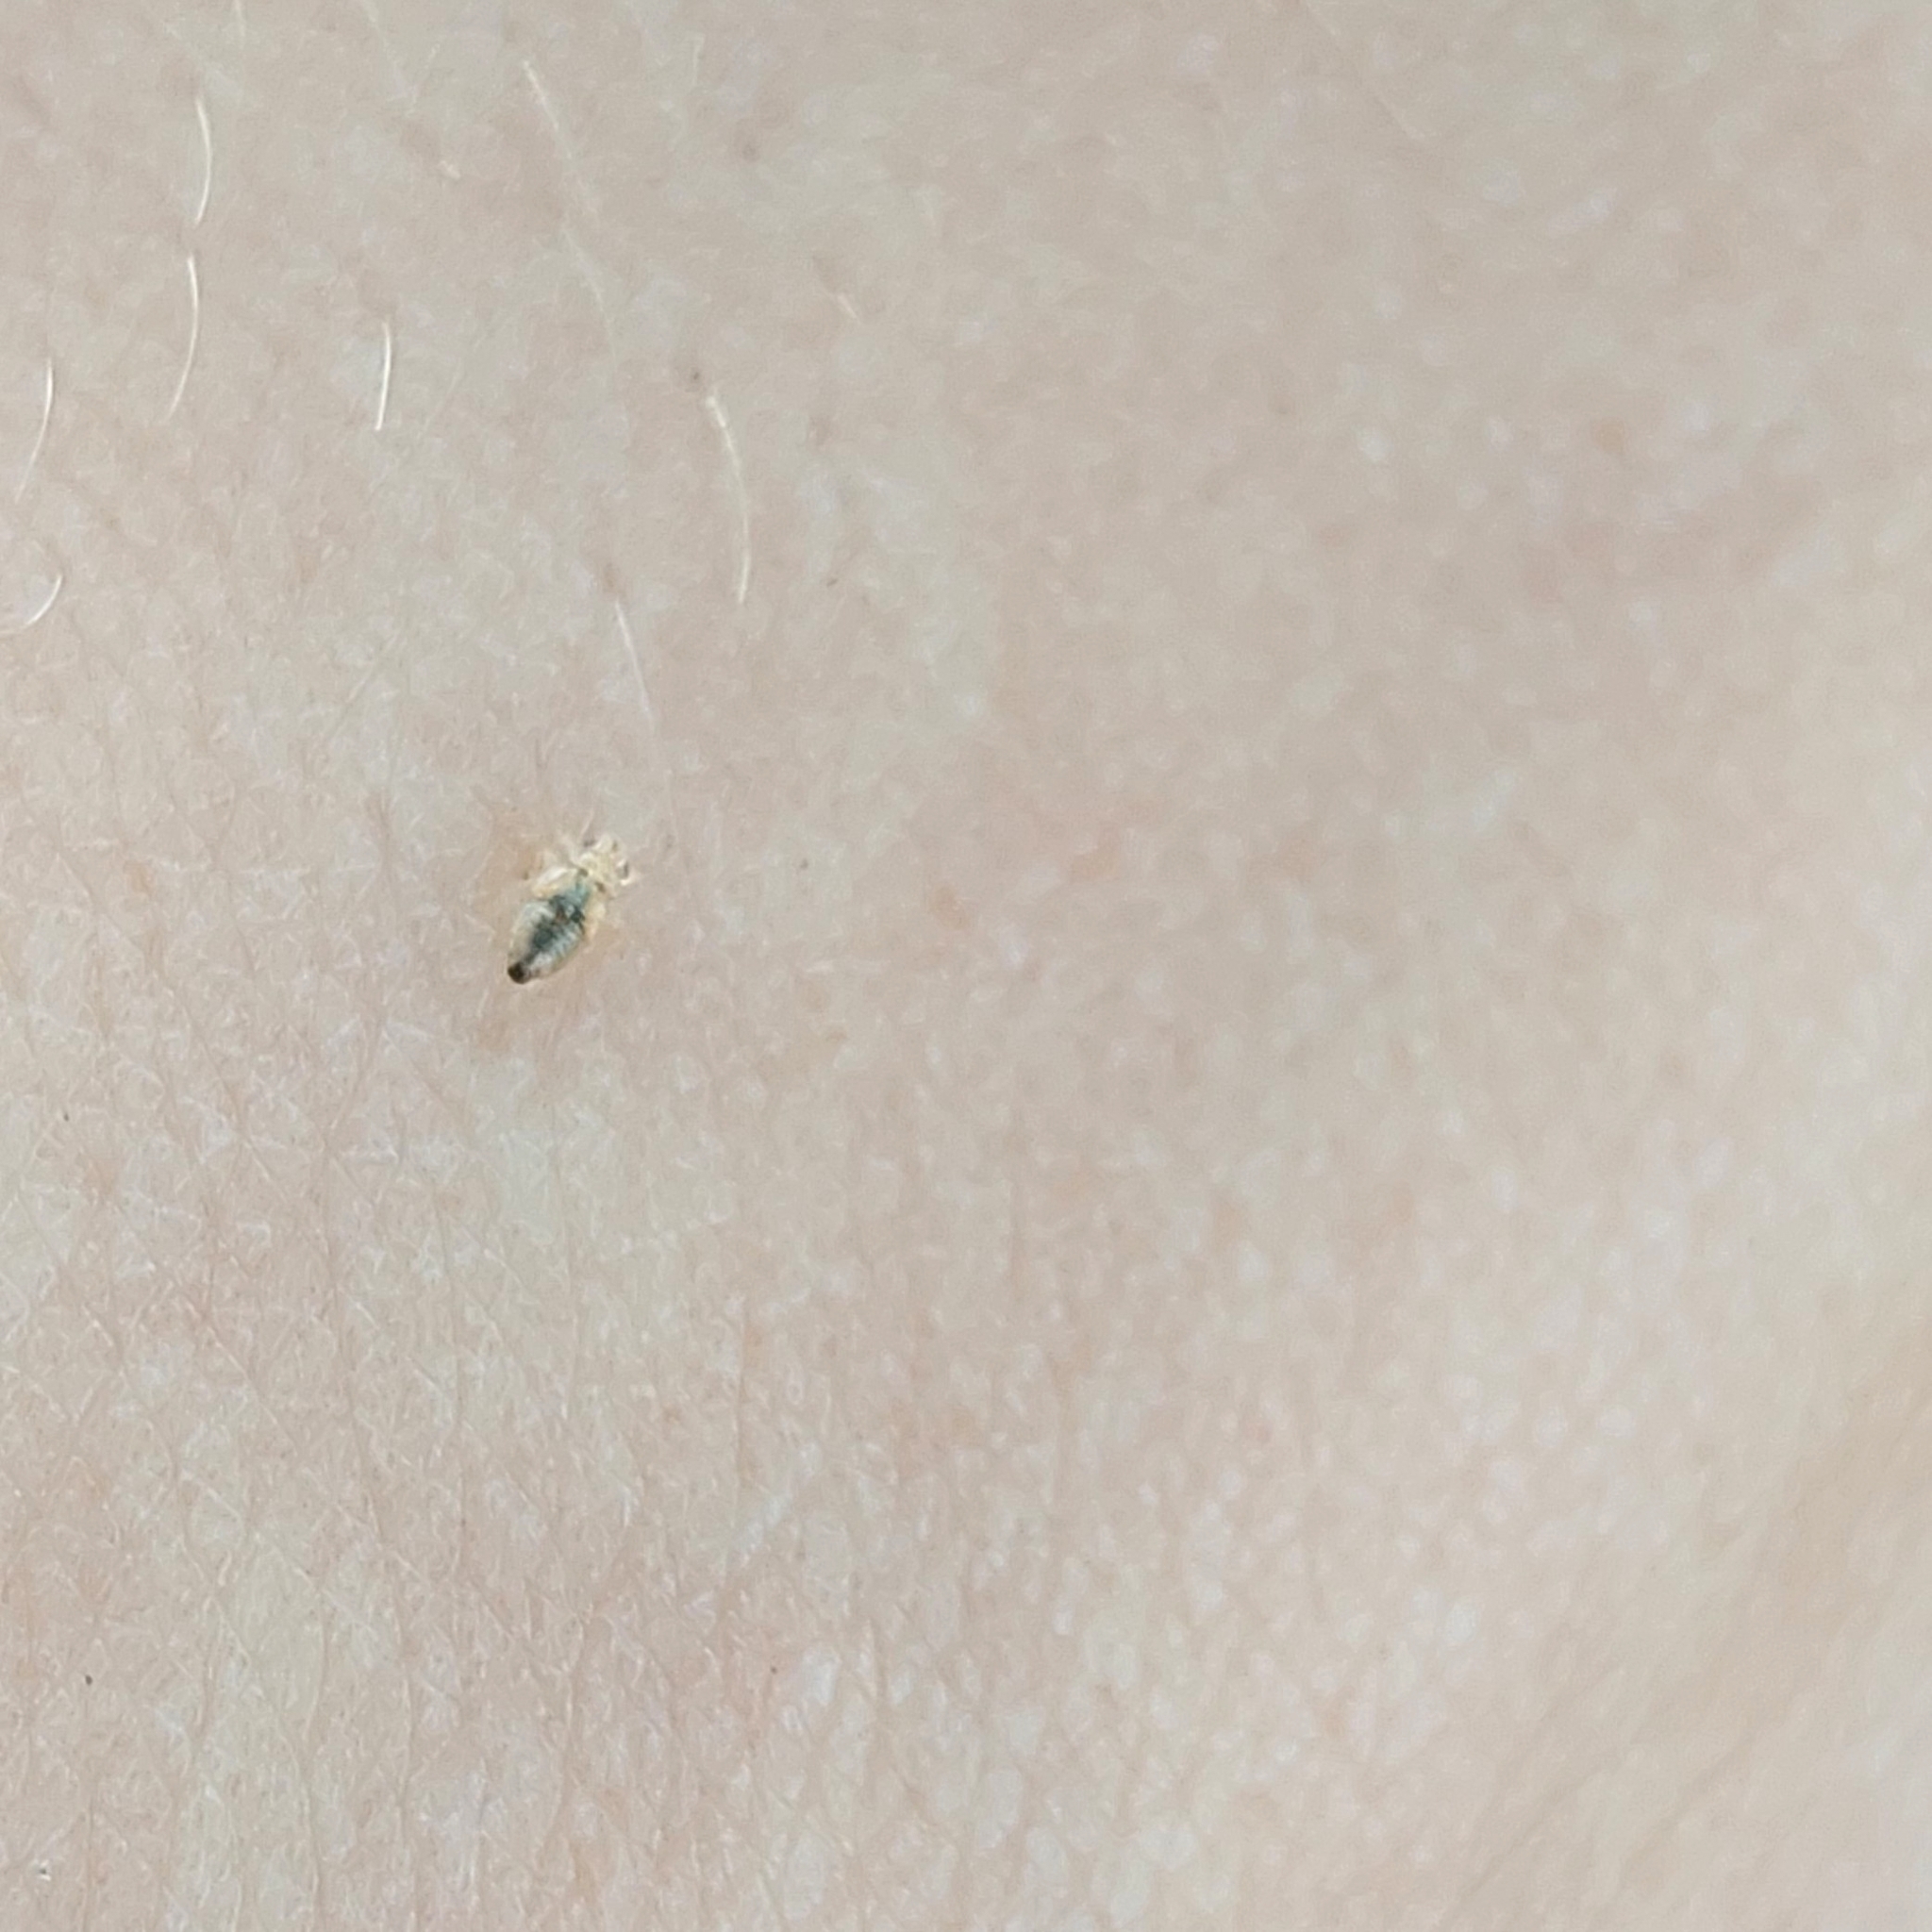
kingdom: Animalia
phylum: Arthropoda
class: Insecta
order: Hemiptera
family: Thaumastocoridae
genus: Thaumastocoris
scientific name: Thaumastocoris peregrinus
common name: Bronze bug
